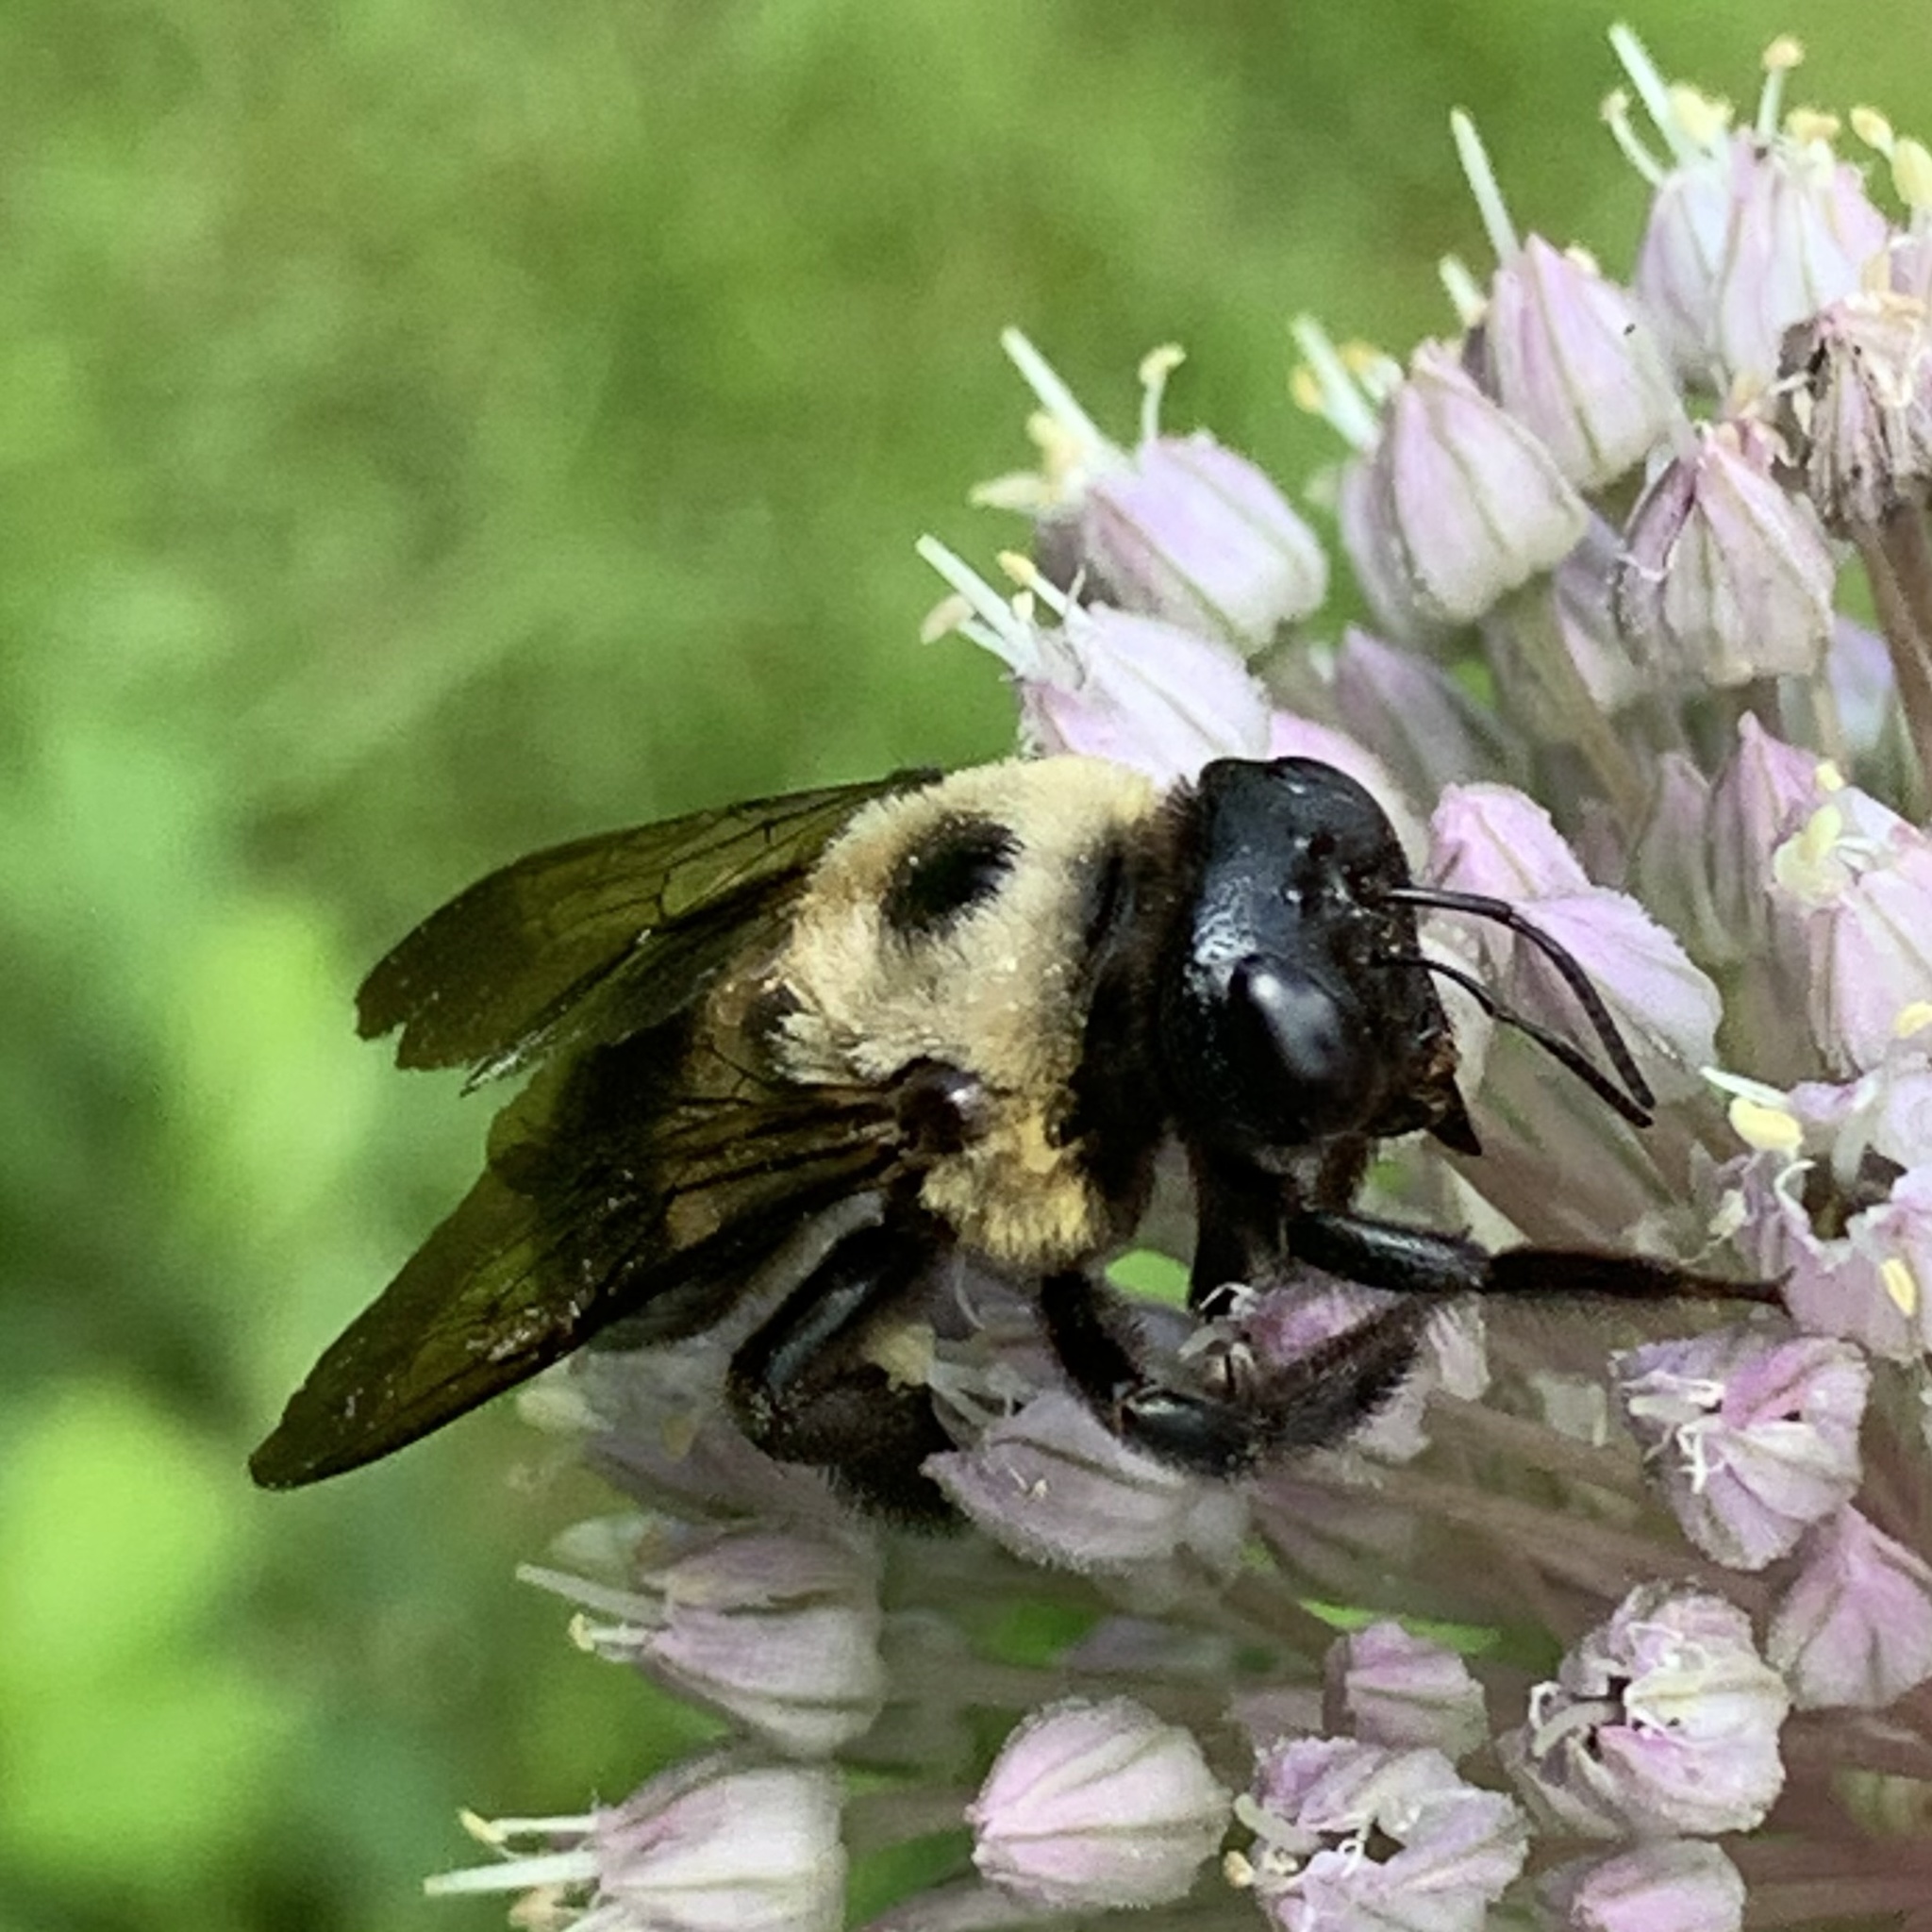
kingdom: Animalia
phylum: Arthropoda
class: Insecta
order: Hymenoptera
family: Apidae
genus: Xylocopa
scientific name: Xylocopa virginica
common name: Carpenter bee
